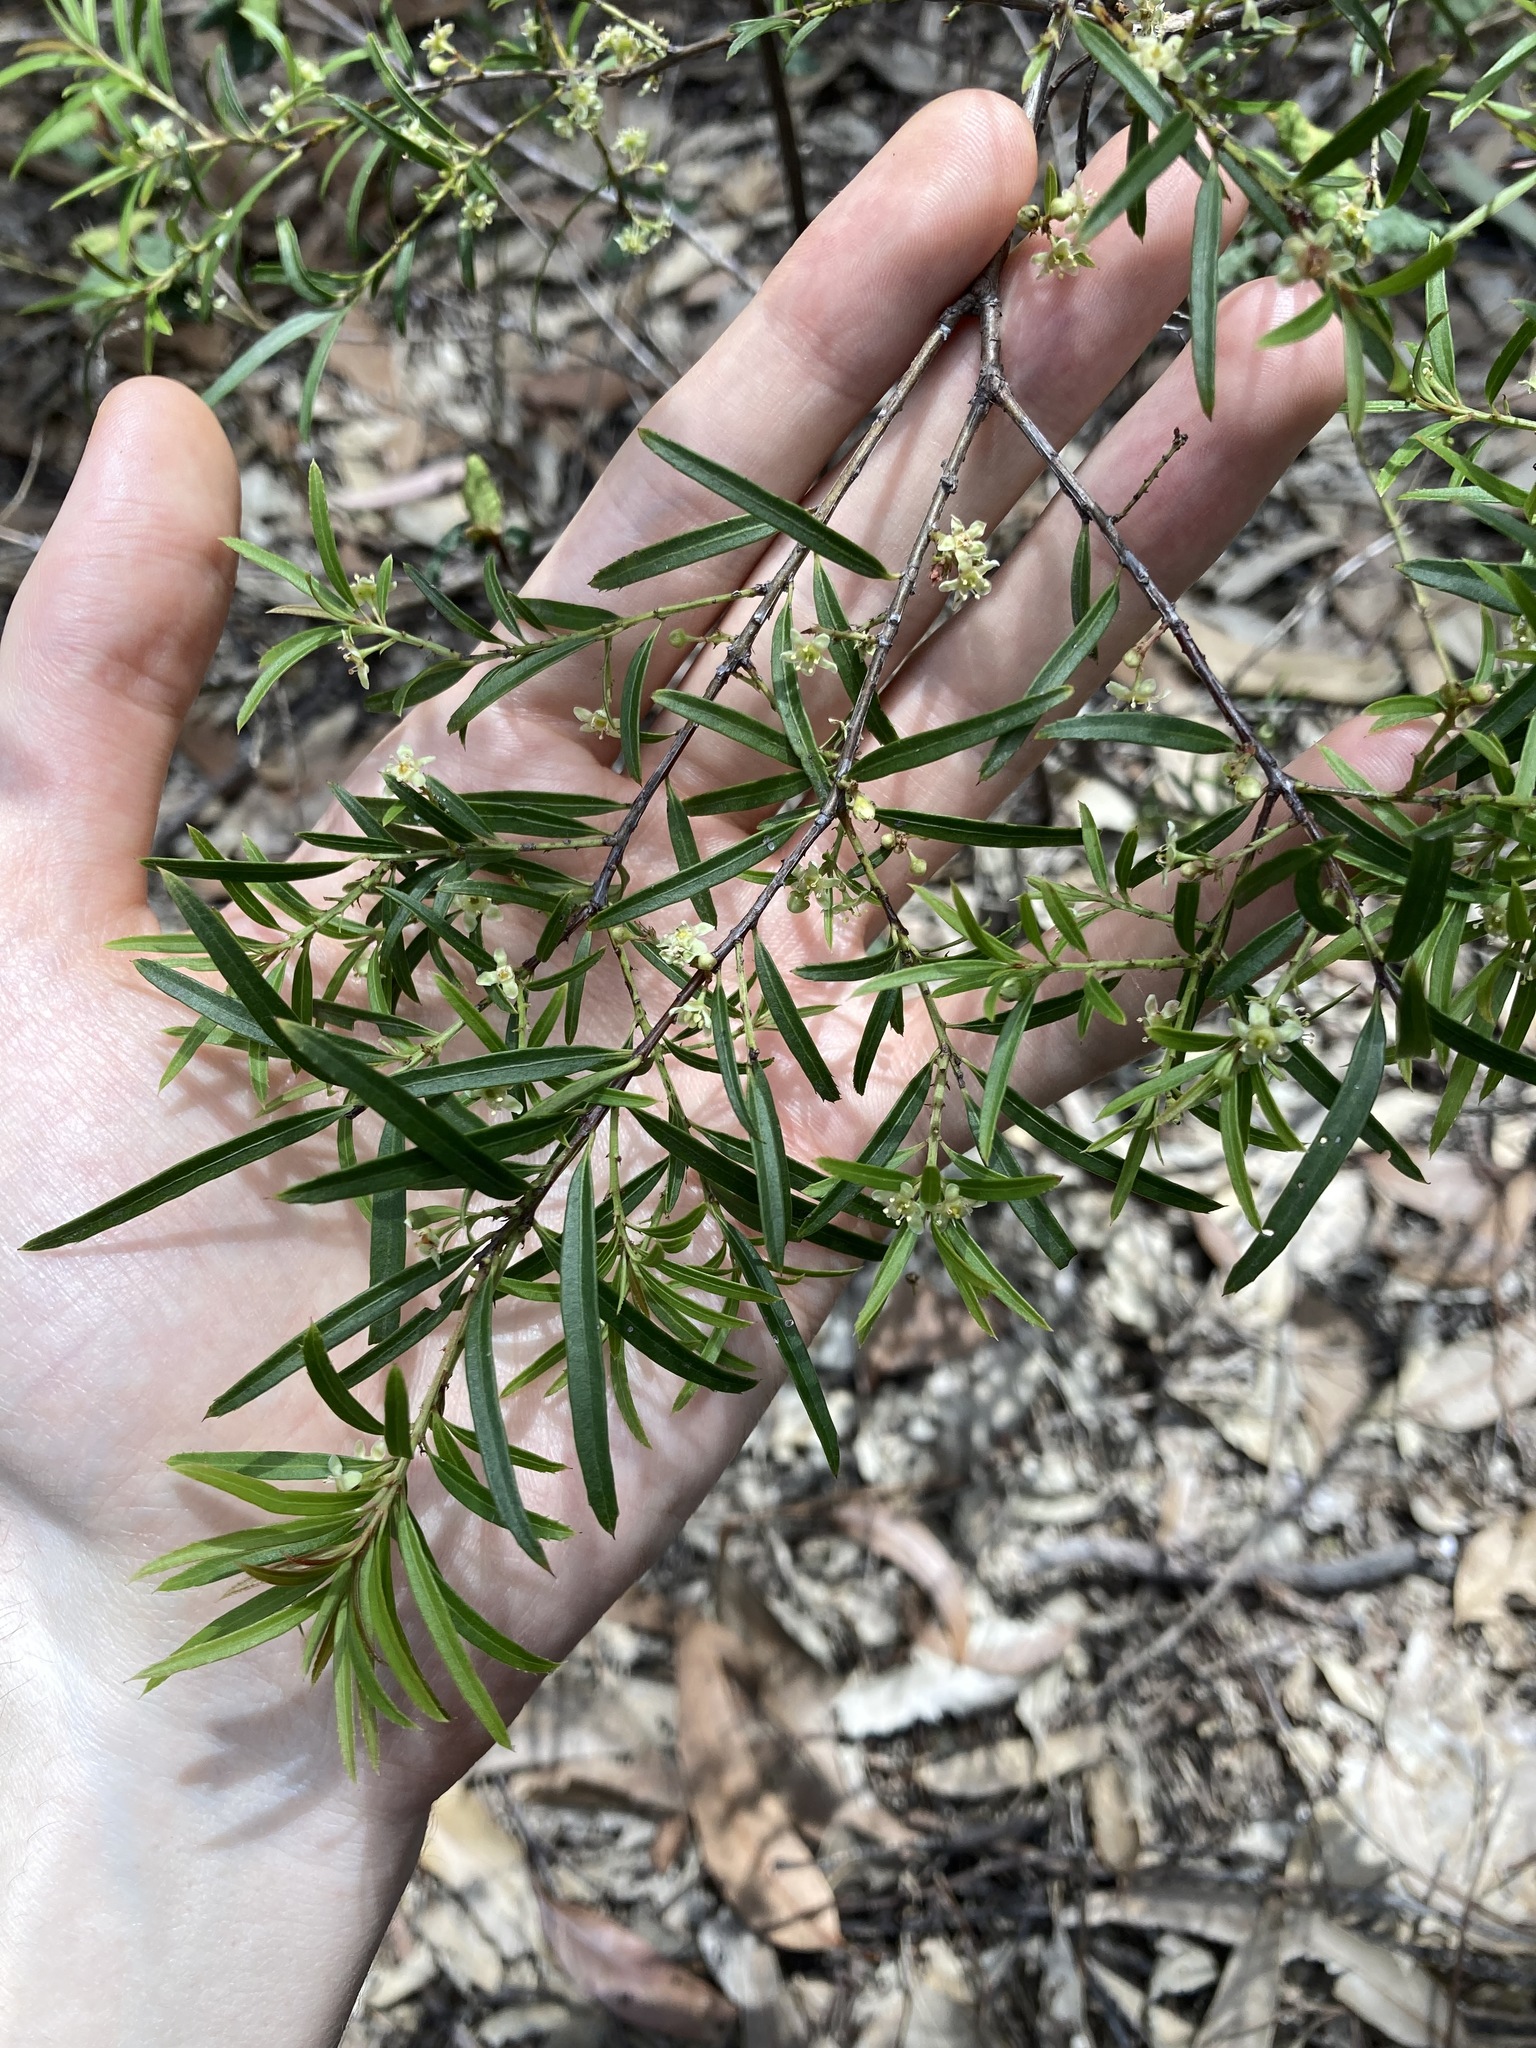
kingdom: Plantae
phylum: Tracheophyta
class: Magnoliopsida
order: Celastrales
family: Celastraceae
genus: Denhamia
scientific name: Denhamia silvestris
